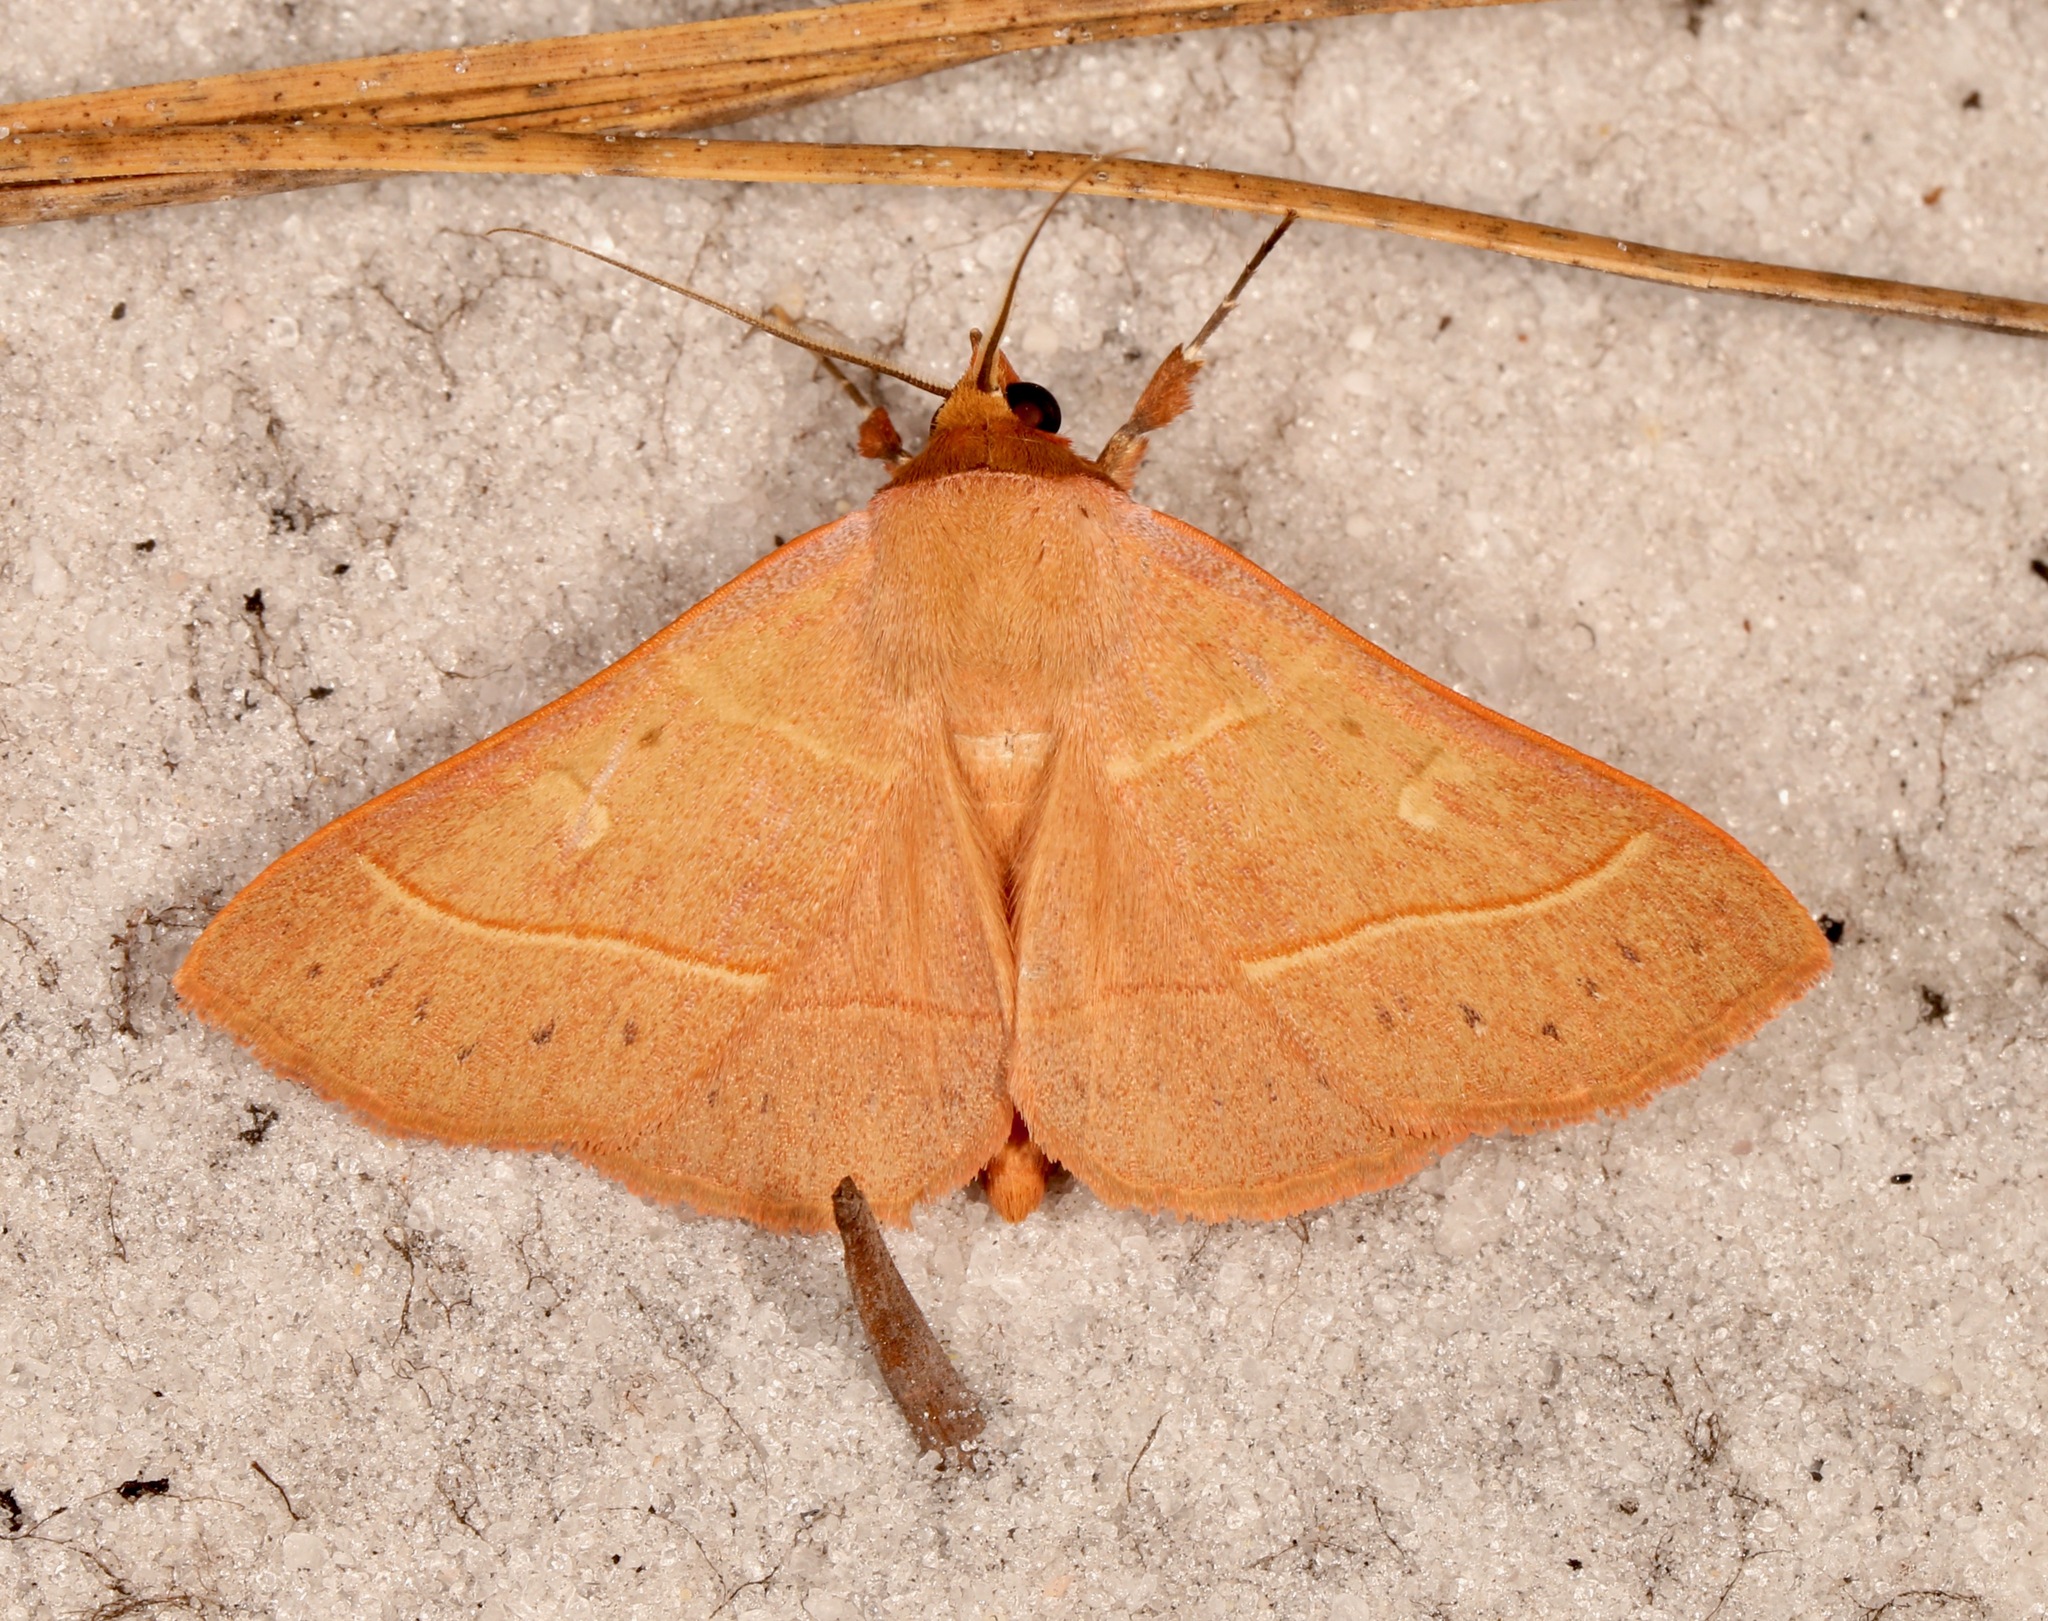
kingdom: Animalia
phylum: Arthropoda
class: Insecta
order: Lepidoptera
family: Erebidae
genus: Panopoda
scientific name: Panopoda rufimargo
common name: Red-lined panopoda moth
